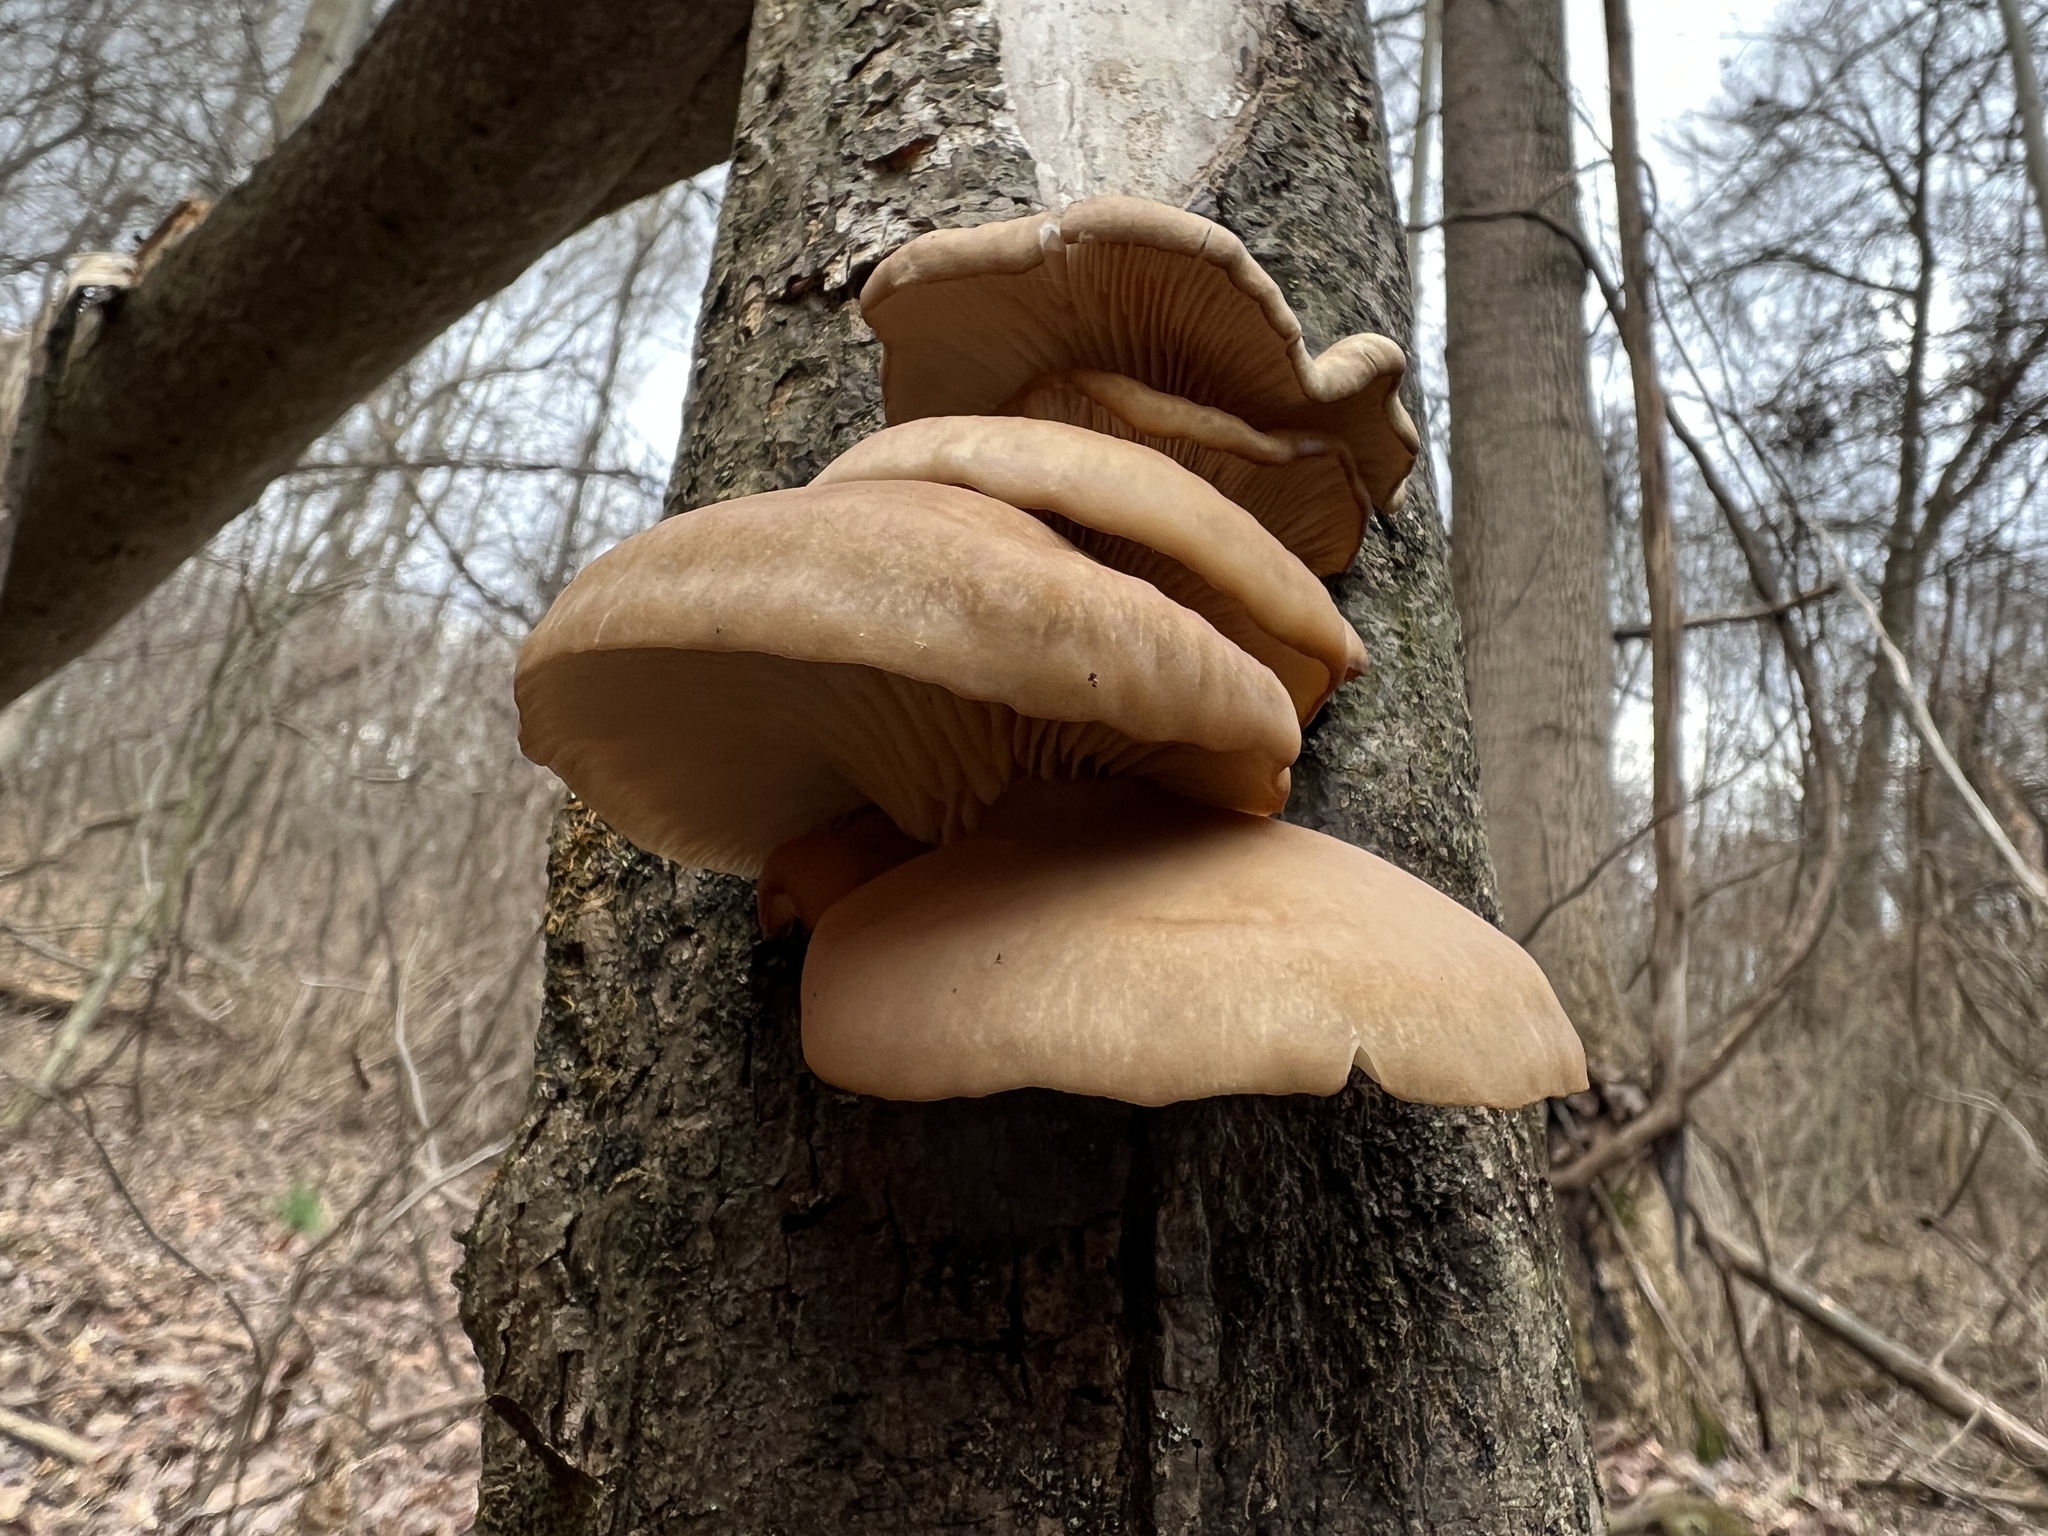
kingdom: Fungi
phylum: Basidiomycota
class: Agaricomycetes
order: Agaricales
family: Pleurotaceae
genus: Pleurotus
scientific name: Pleurotus ostreatus
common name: Oyster mushroom
